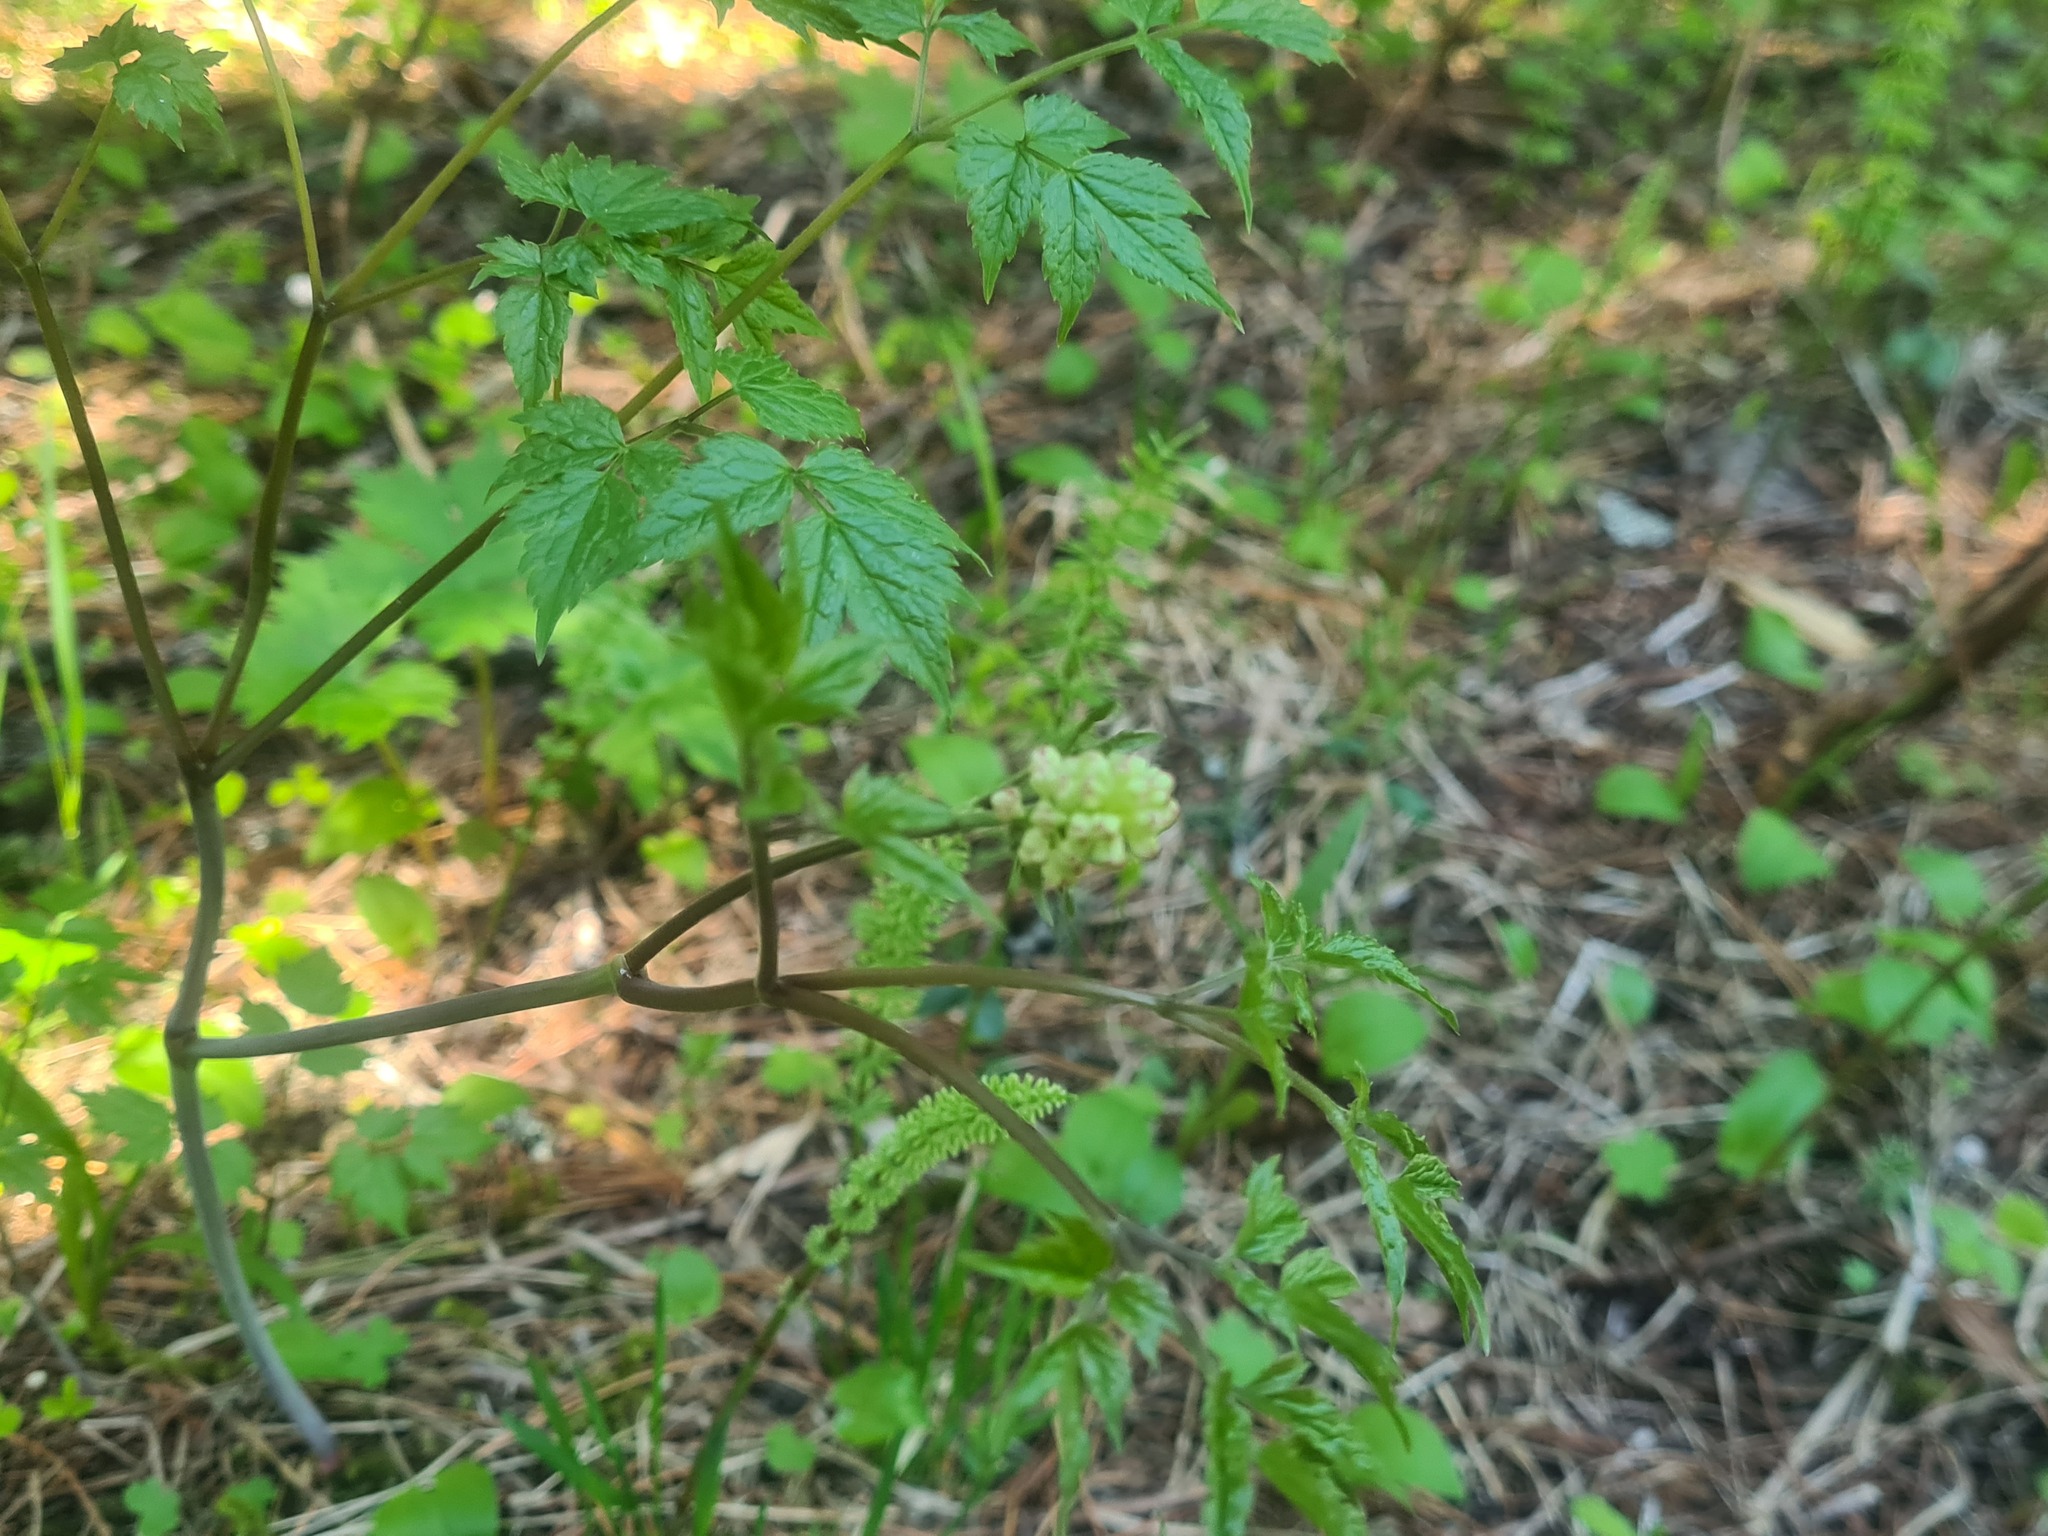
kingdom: Plantae
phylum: Tracheophyta
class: Magnoliopsida
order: Ranunculales
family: Ranunculaceae
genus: Actaea
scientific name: Actaea erythrocarpa
